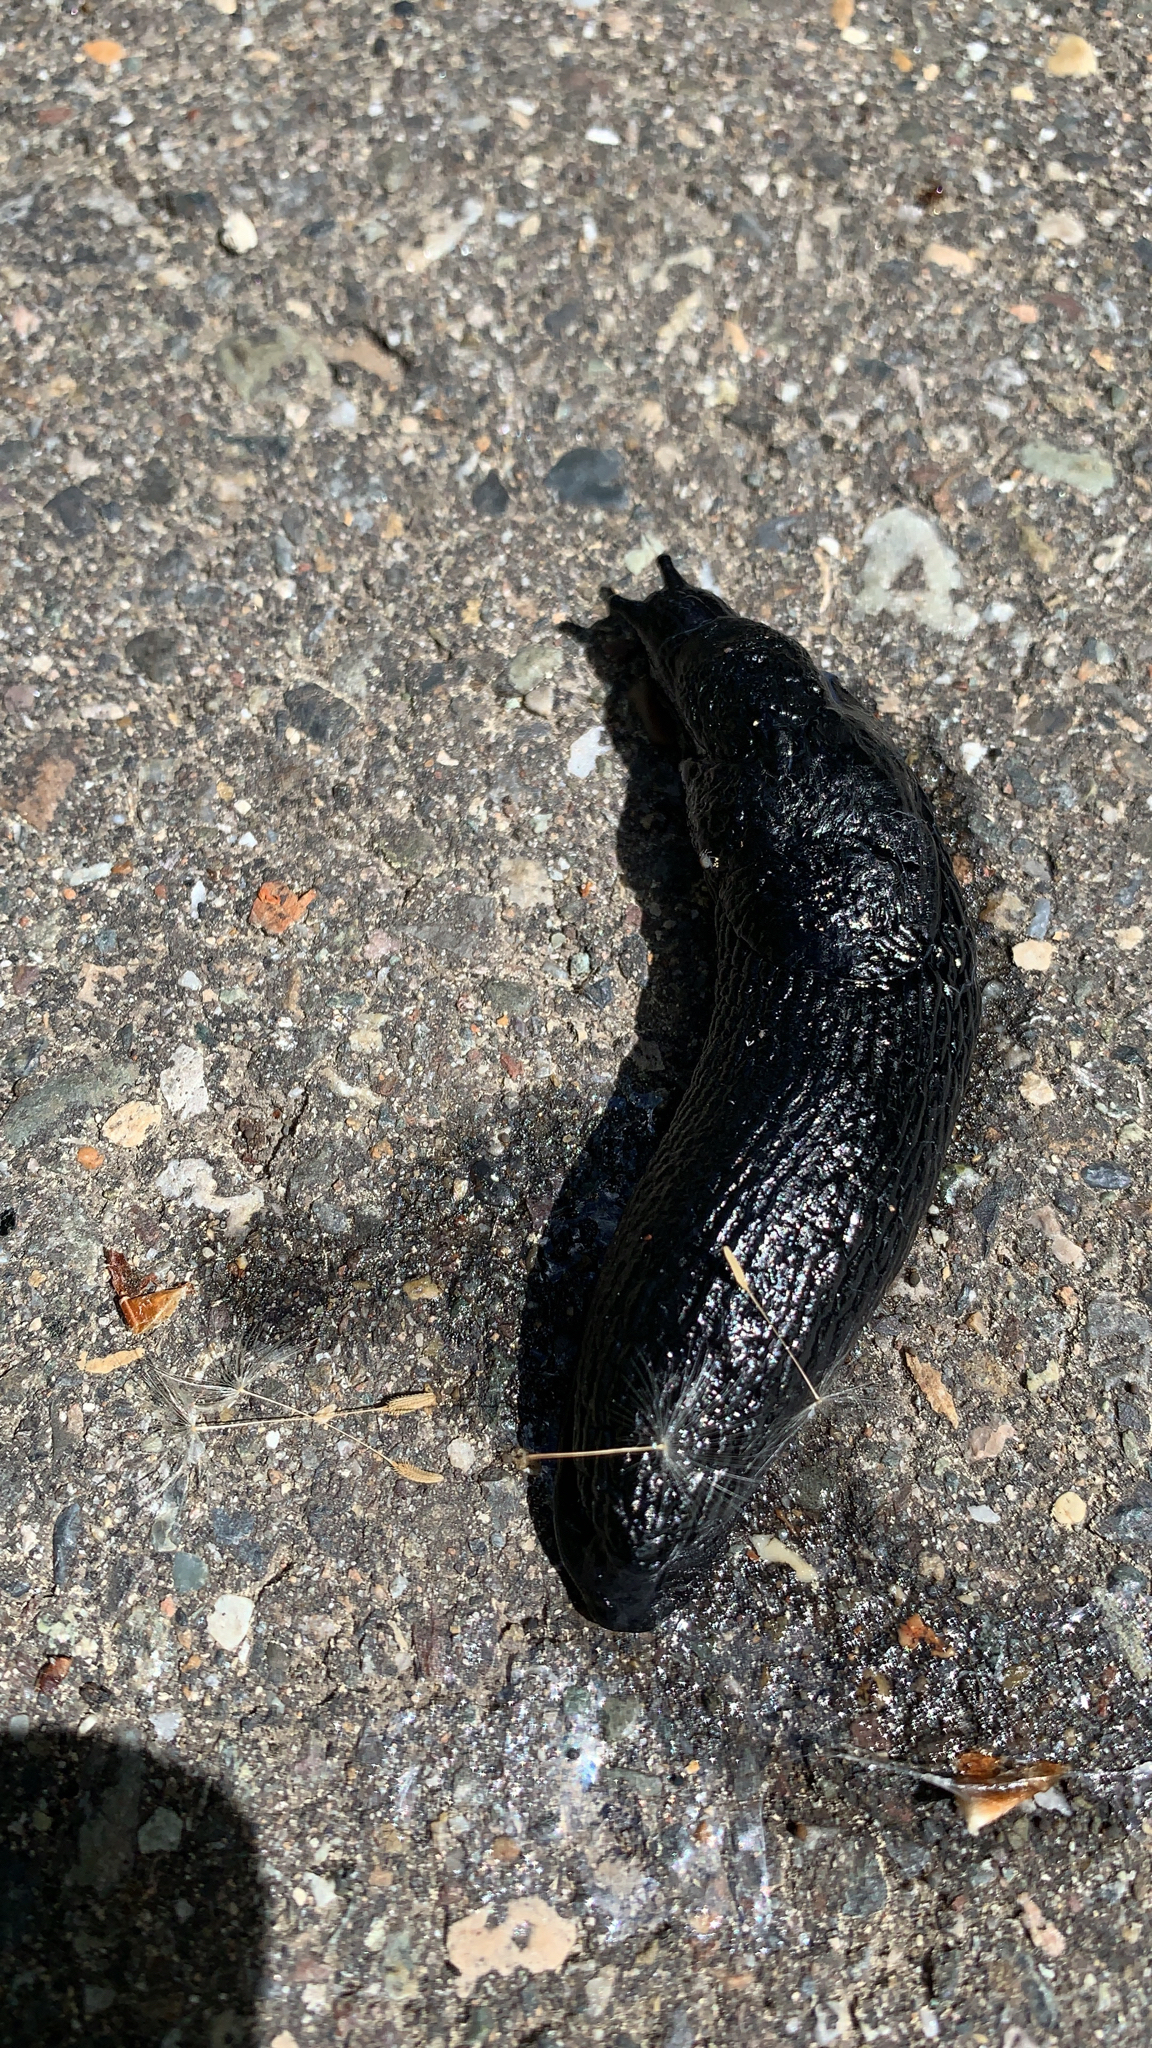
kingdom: Animalia
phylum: Mollusca
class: Gastropoda
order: Stylommatophora
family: Arionidae
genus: Arion
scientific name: Arion
